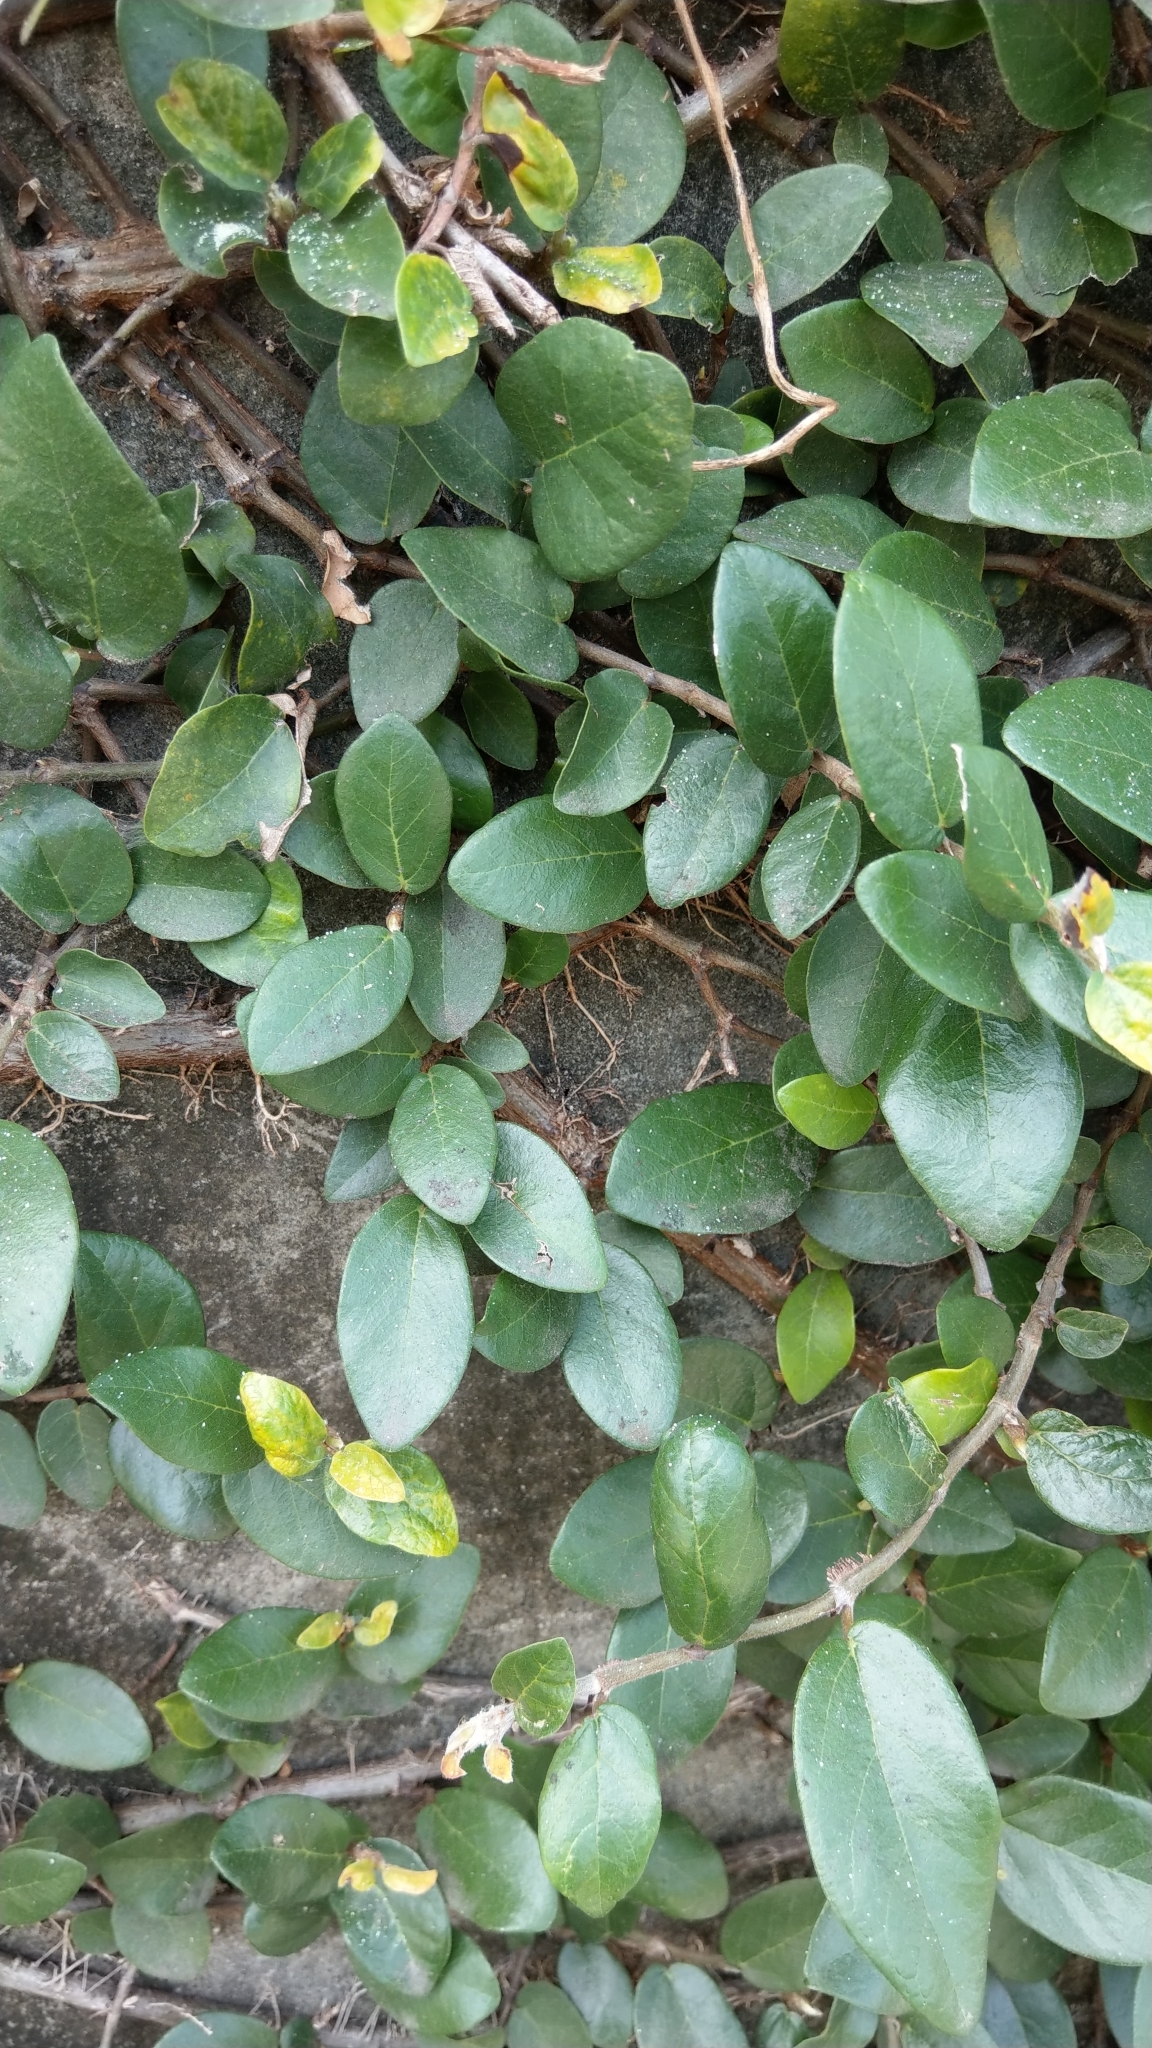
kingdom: Plantae
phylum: Tracheophyta
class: Magnoliopsida
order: Rosales
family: Moraceae
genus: Ficus
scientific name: Ficus pumila
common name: Climbingfig
